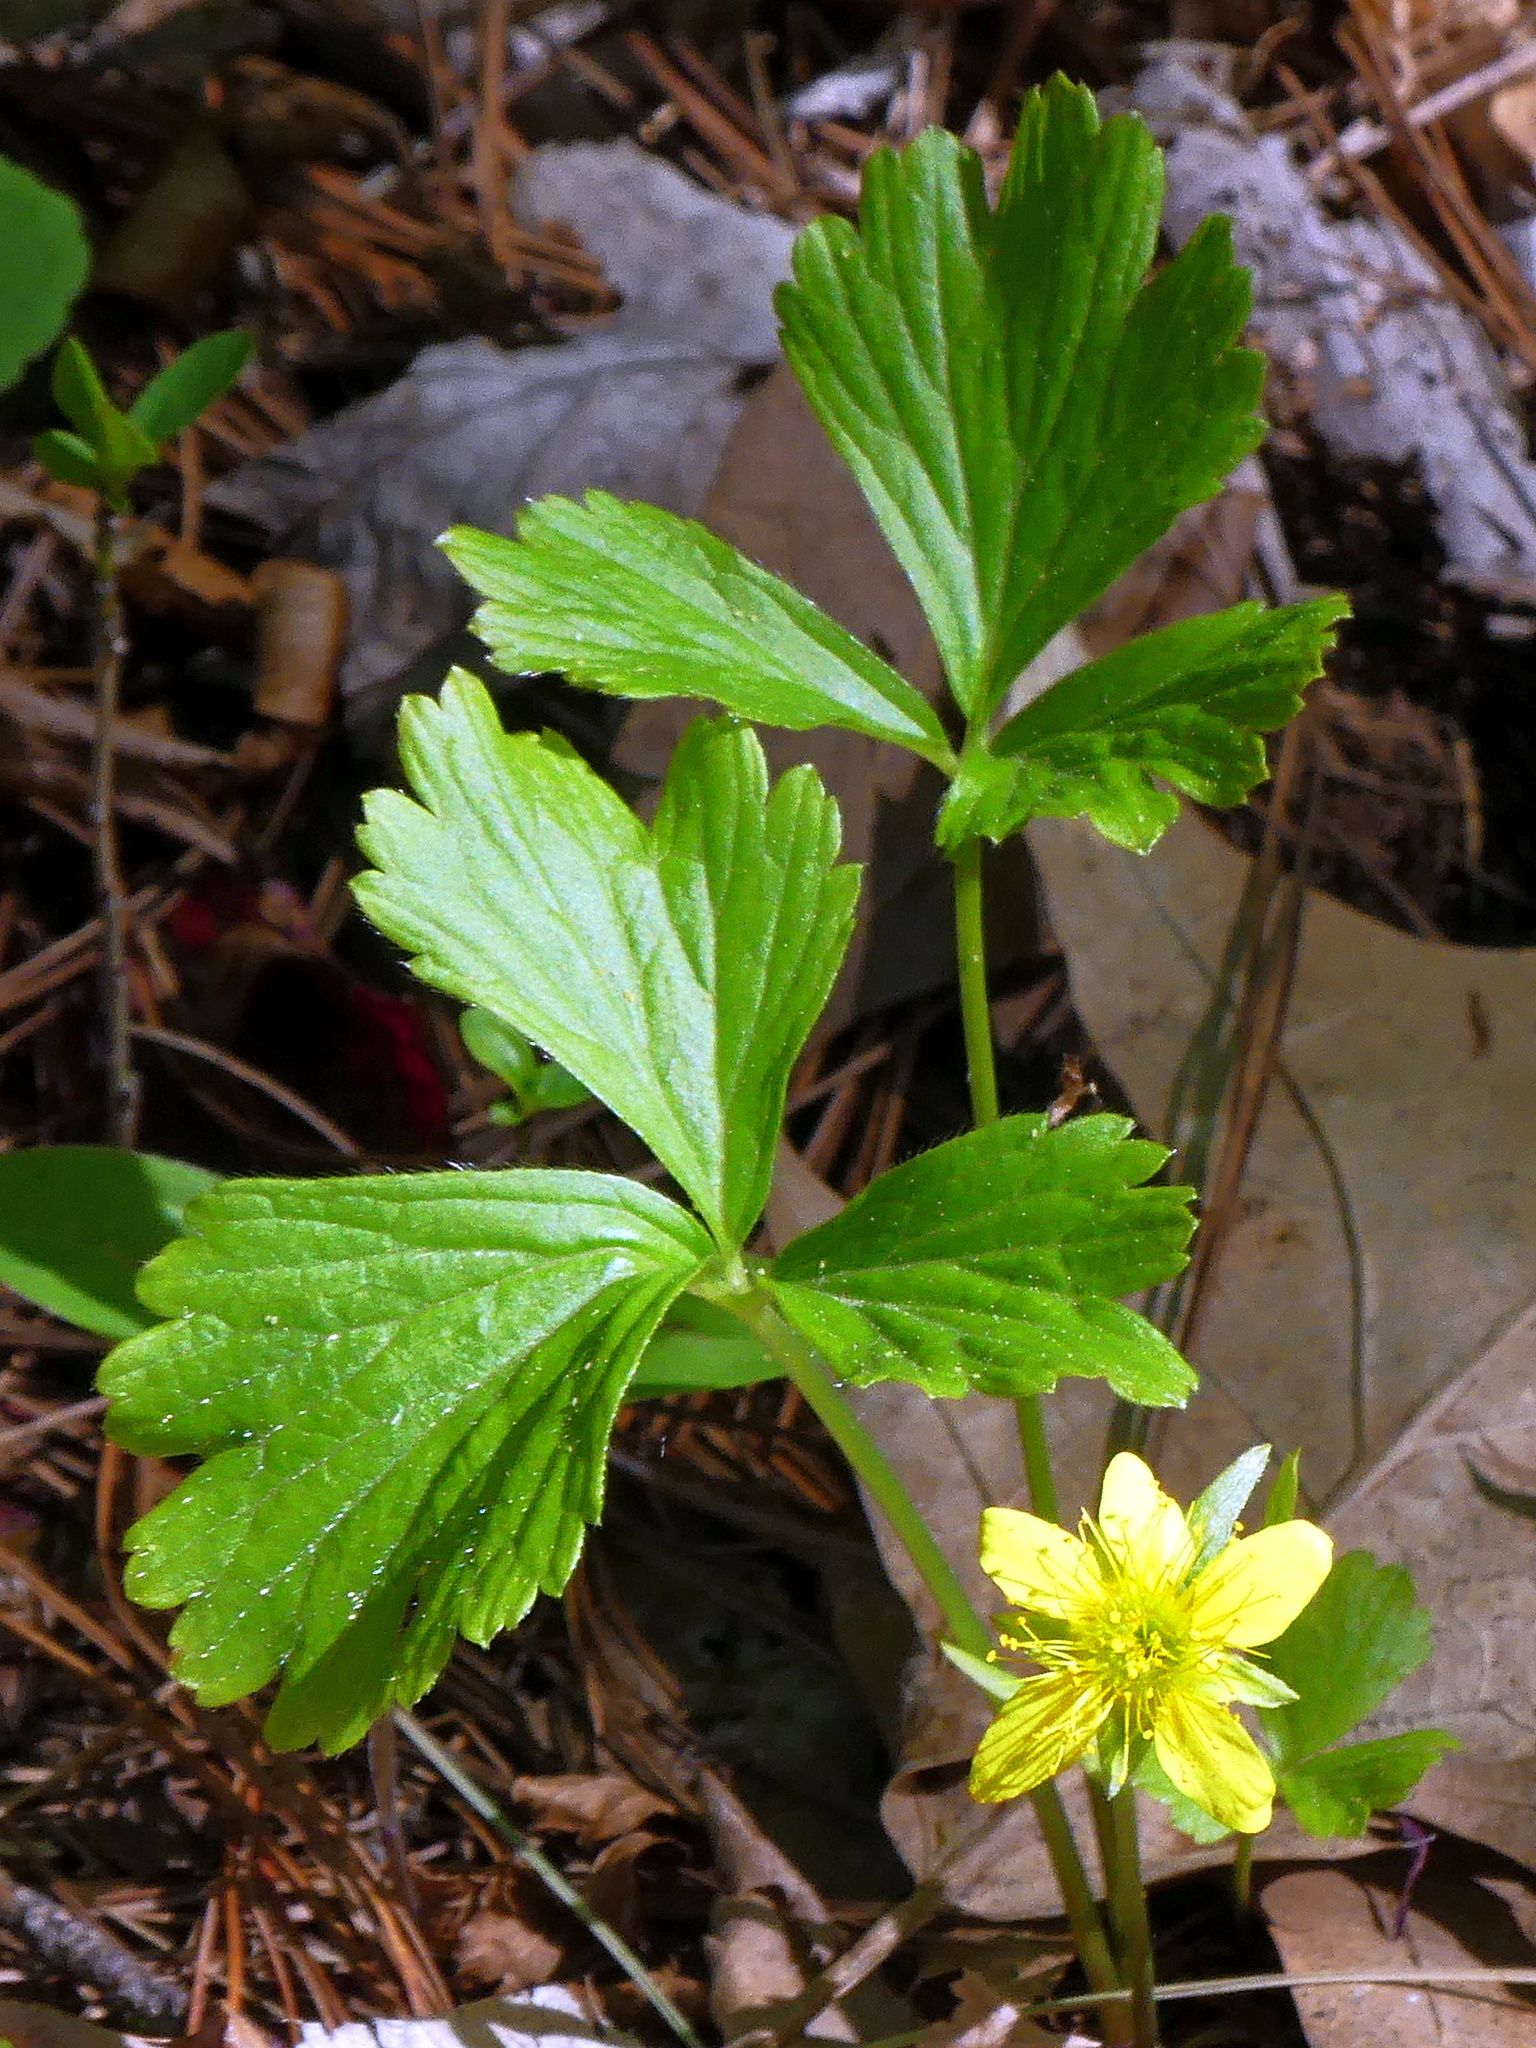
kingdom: Plantae
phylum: Tracheophyta
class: Magnoliopsida
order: Rosales
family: Rosaceae
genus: Geum
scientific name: Geum fragarioides
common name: Appalachian barren strawberry
